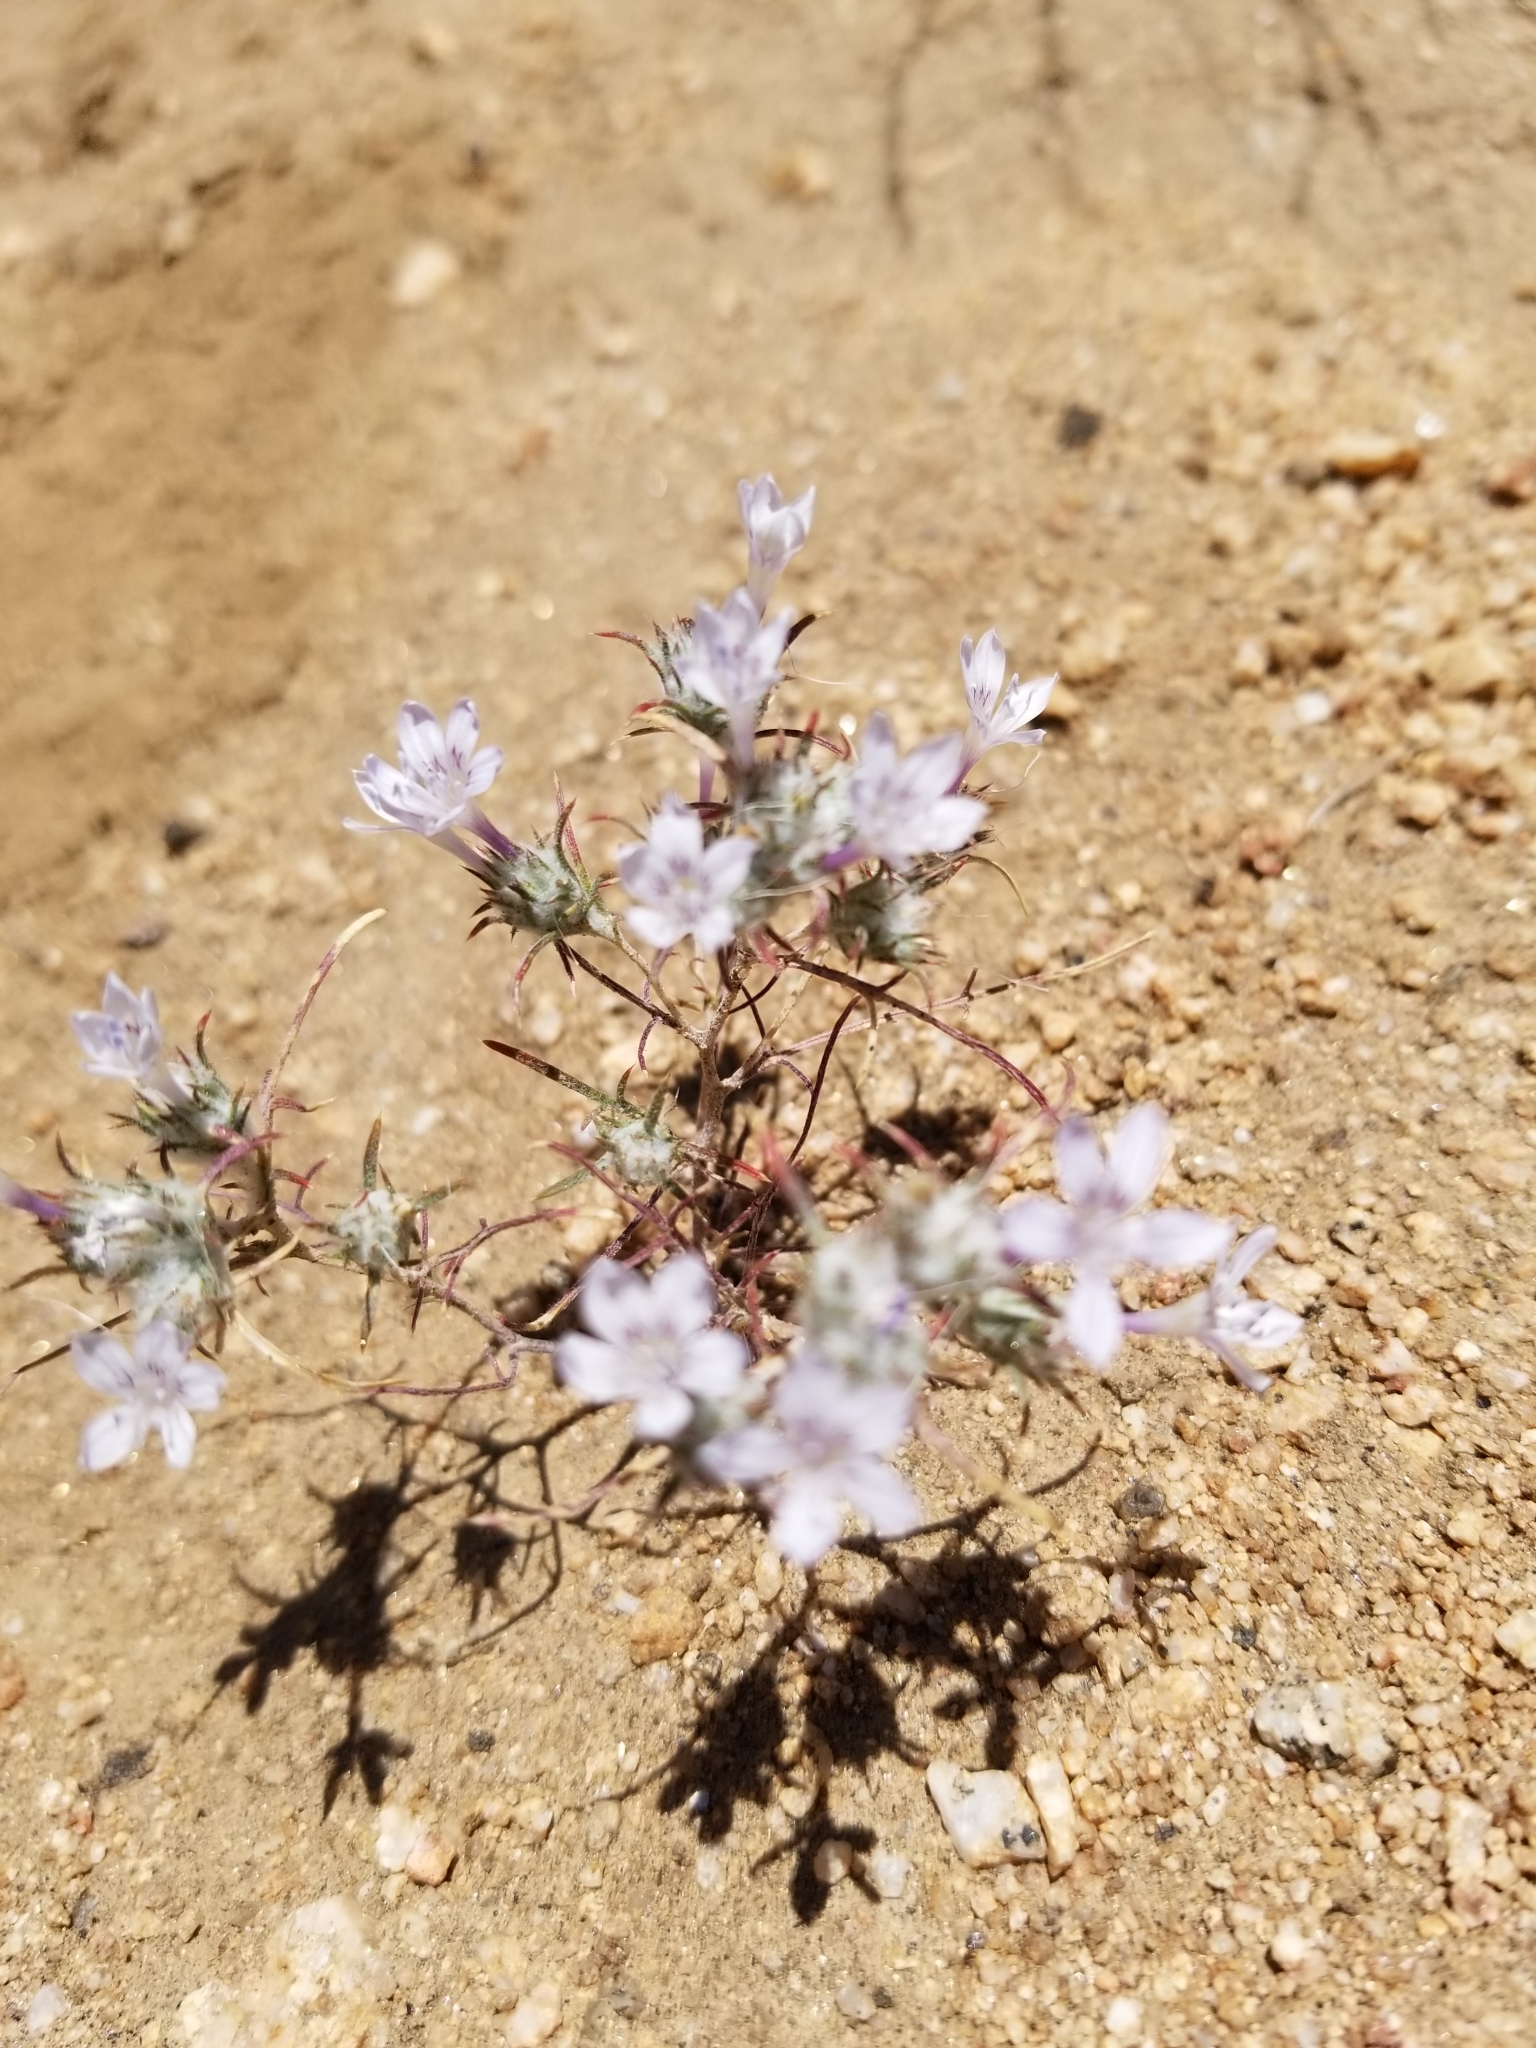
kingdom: Plantae
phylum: Tracheophyta
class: Magnoliopsida
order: Ericales
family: Polemoniaceae
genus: Eriastrum
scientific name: Eriastrum eremicum
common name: Desert eriastrum
